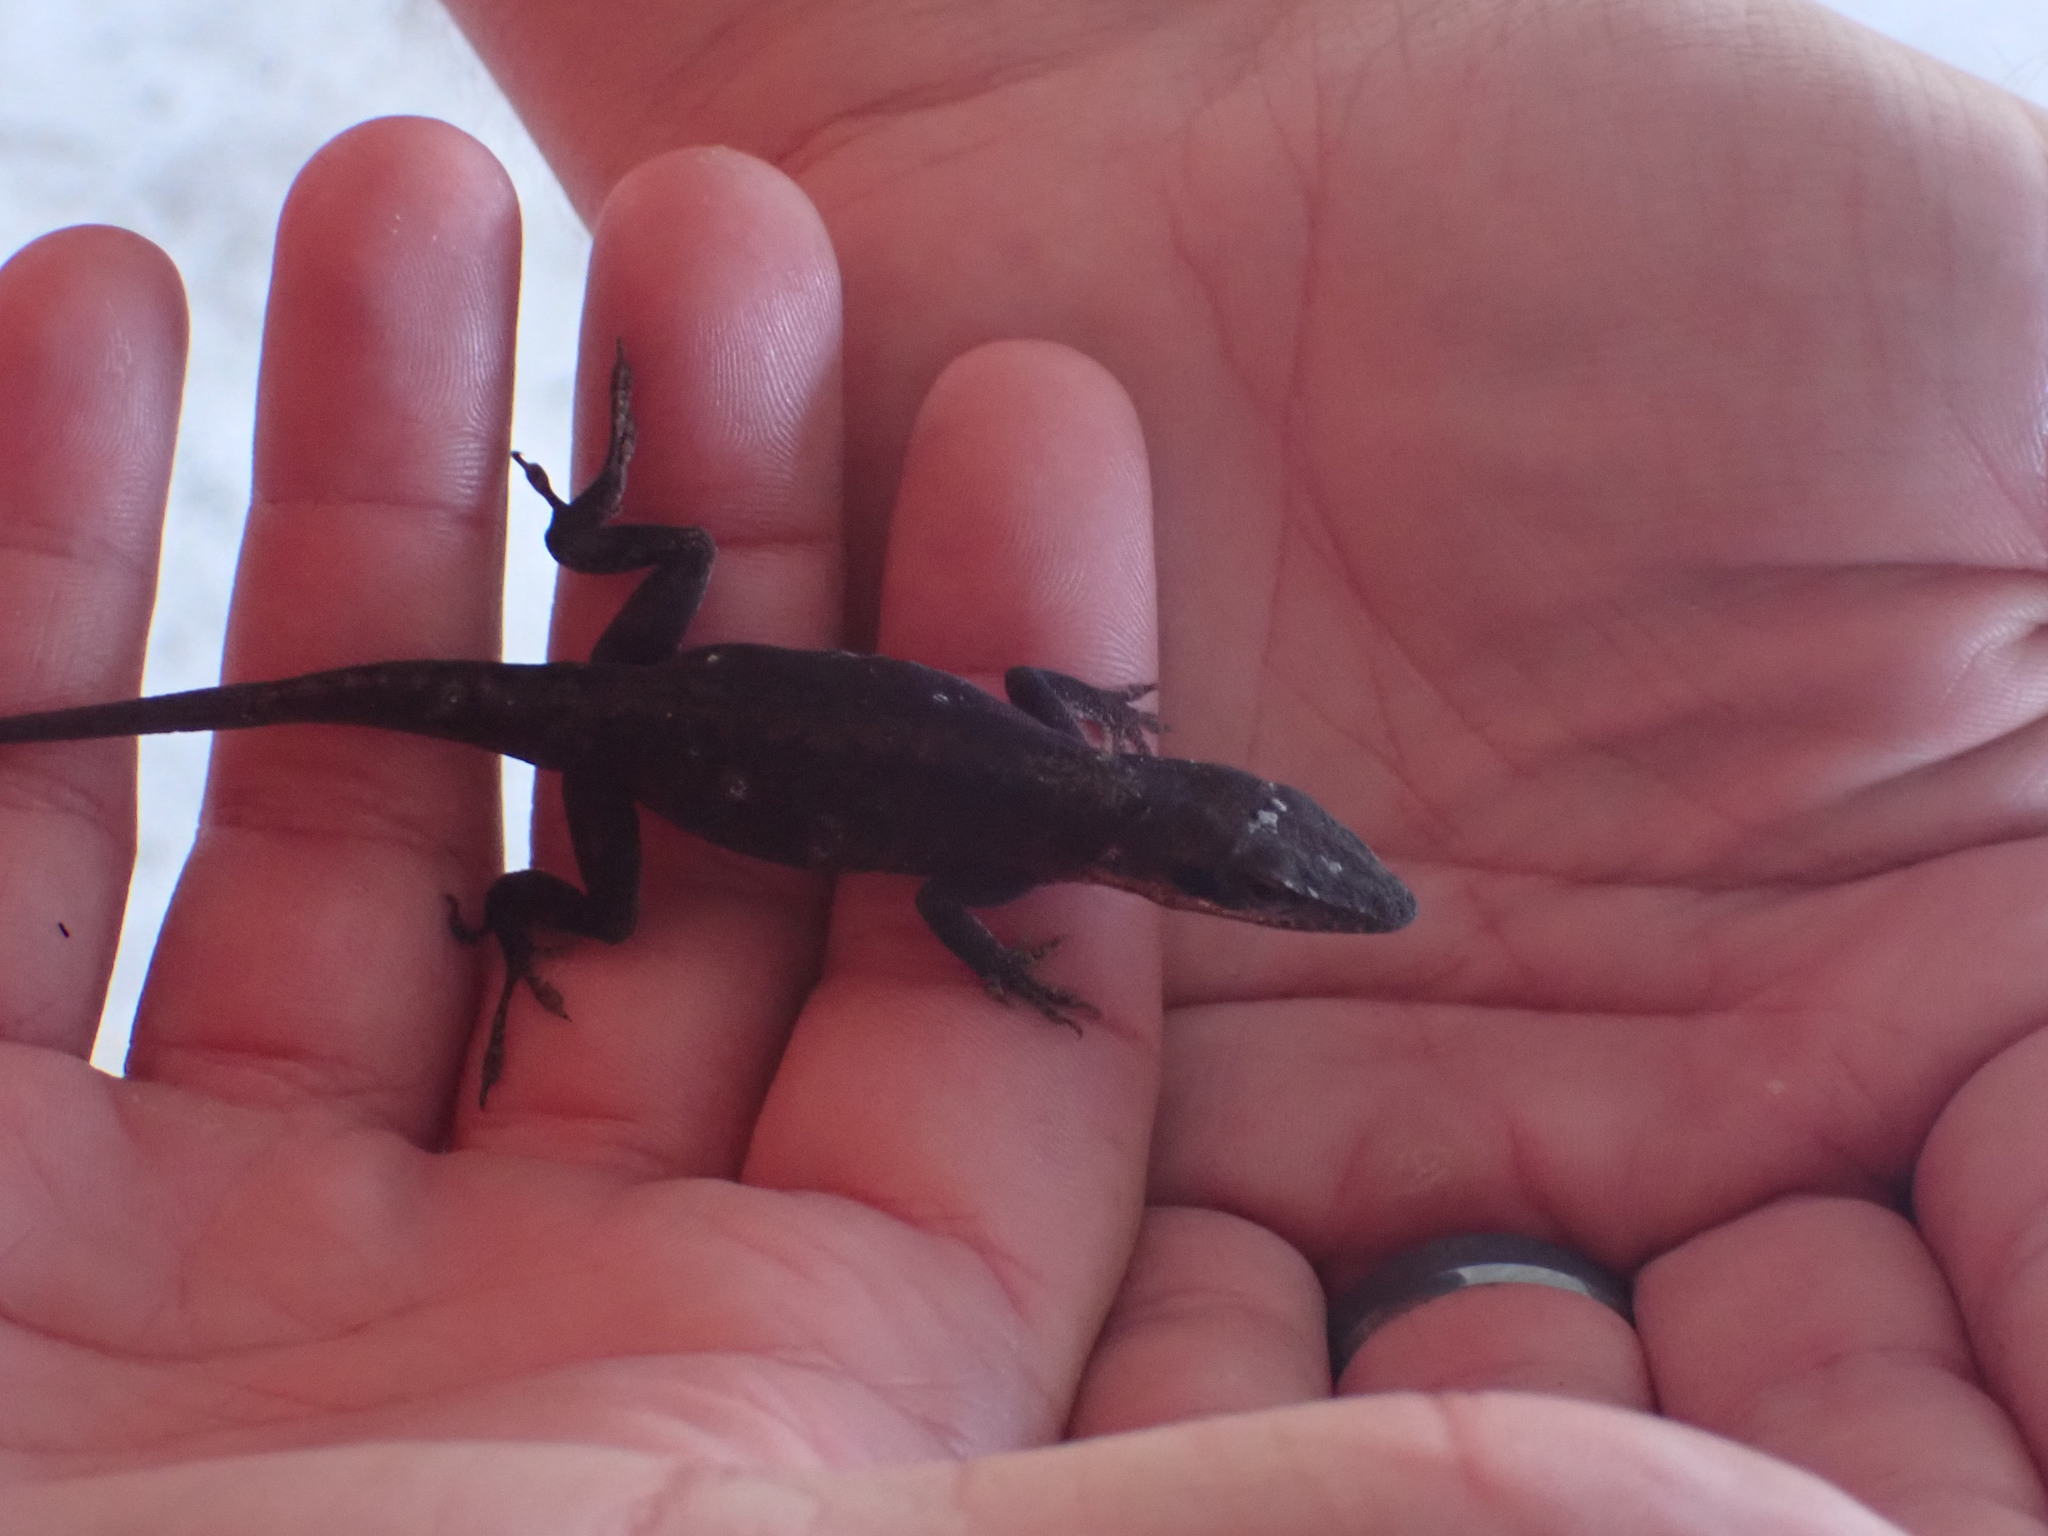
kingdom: Animalia
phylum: Chordata
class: Squamata
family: Dactyloidae
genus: Anolis
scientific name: Anolis carolinensis
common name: Green anole
